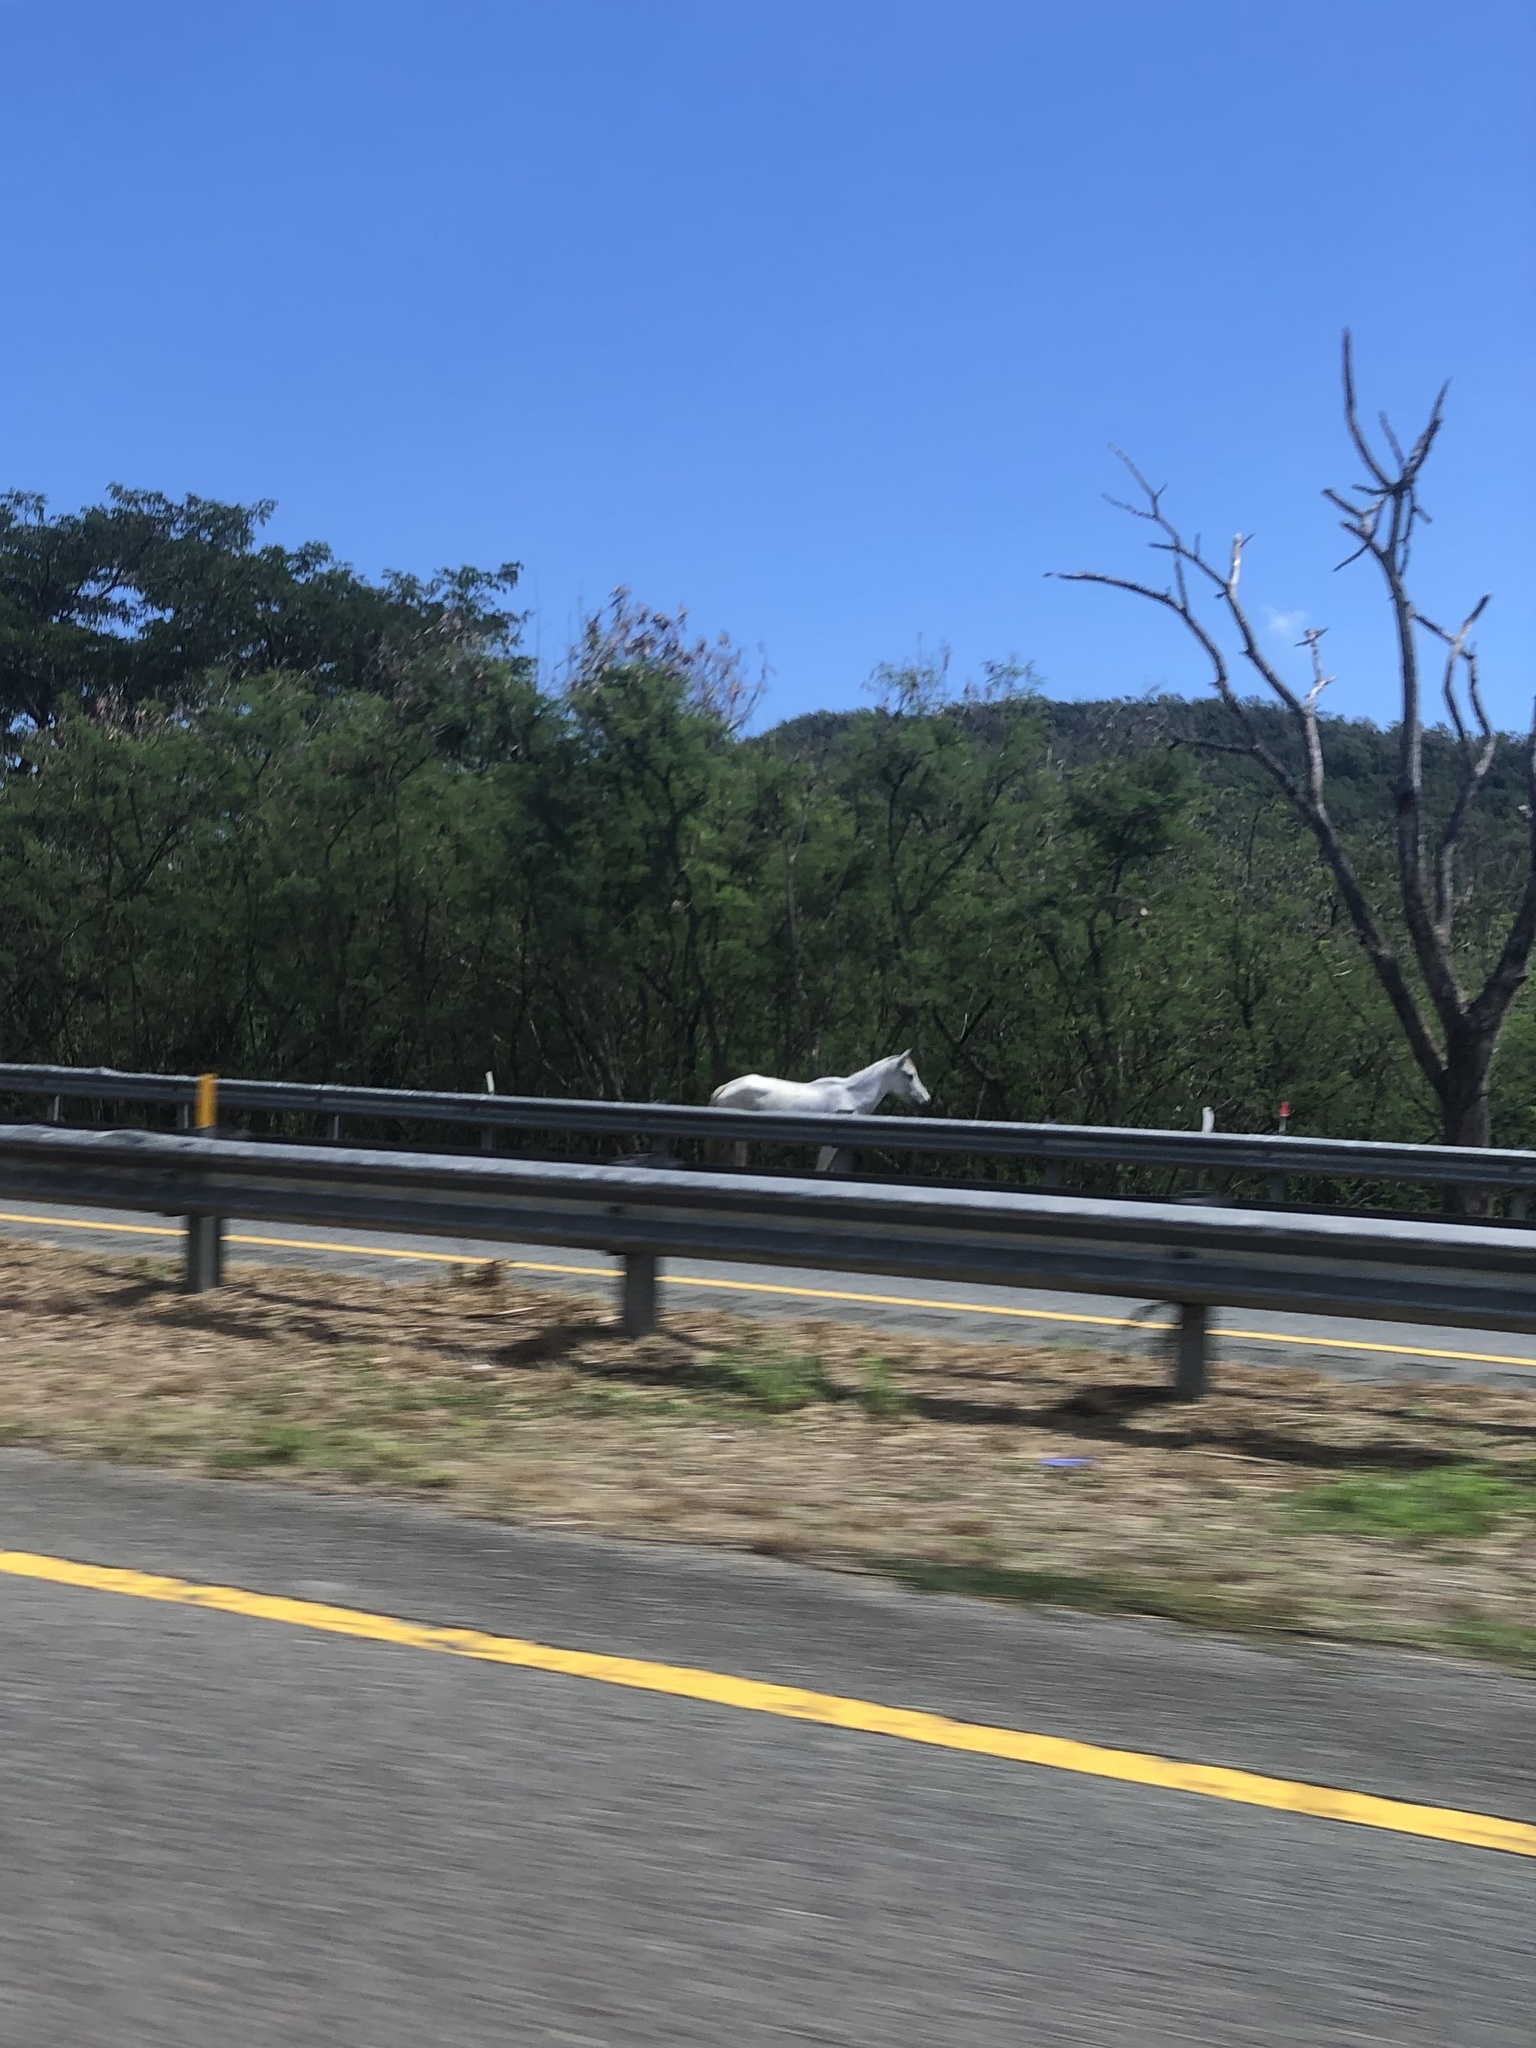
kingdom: Animalia
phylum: Chordata
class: Mammalia
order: Perissodactyla
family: Equidae
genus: Equus
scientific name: Equus caballus
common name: Horse
